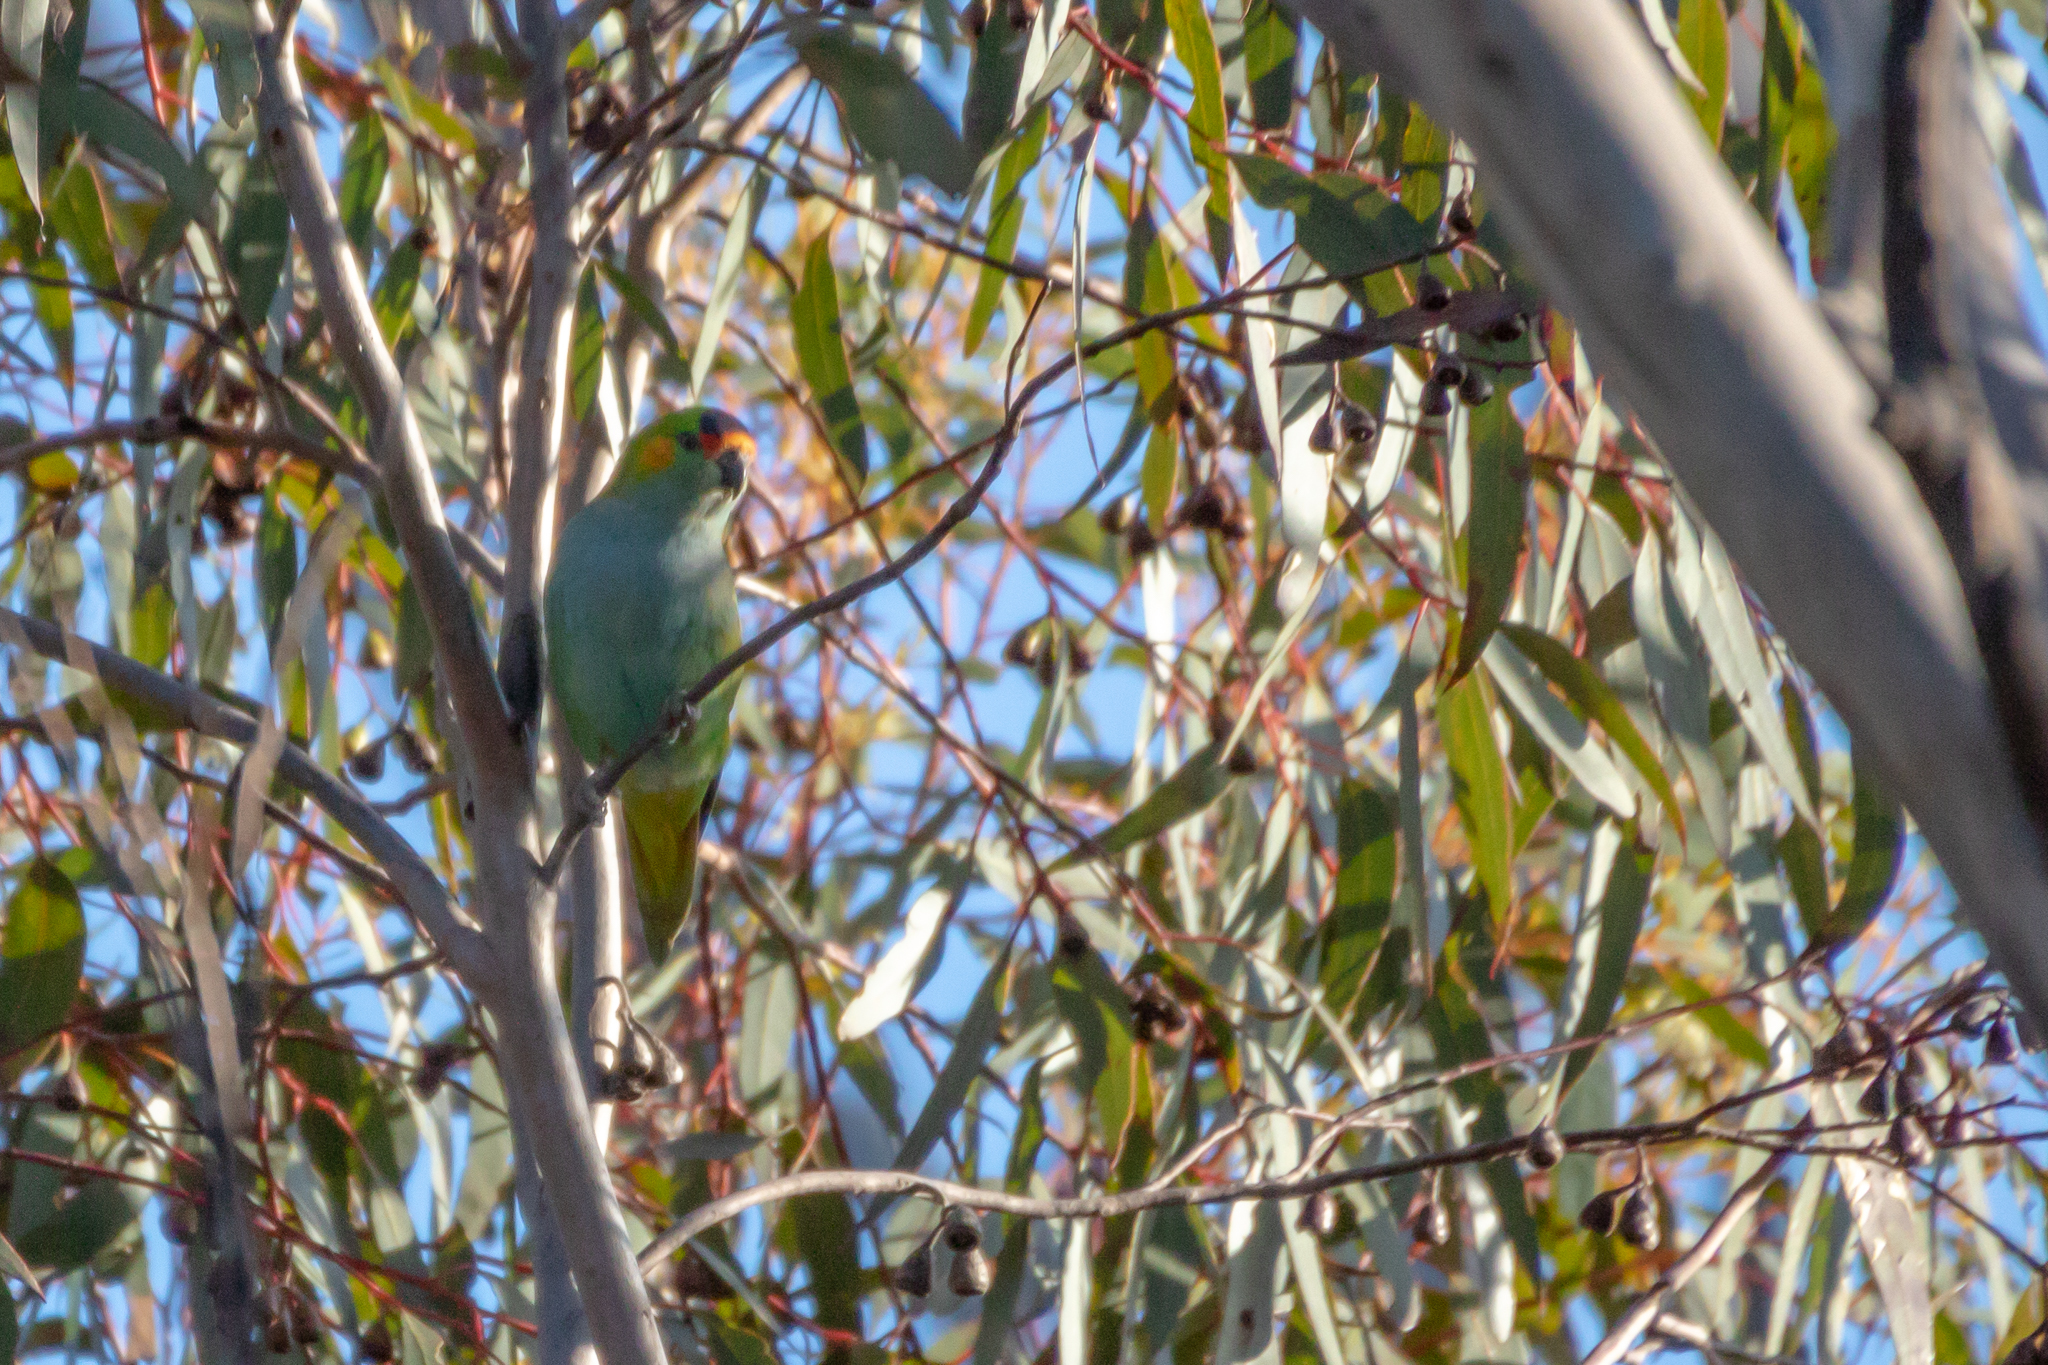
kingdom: Animalia
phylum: Chordata
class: Aves
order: Psittaciformes
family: Psittaculidae
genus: Parvipsitta
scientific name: Parvipsitta porphyrocephala
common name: Purple-crowned lorikeet
